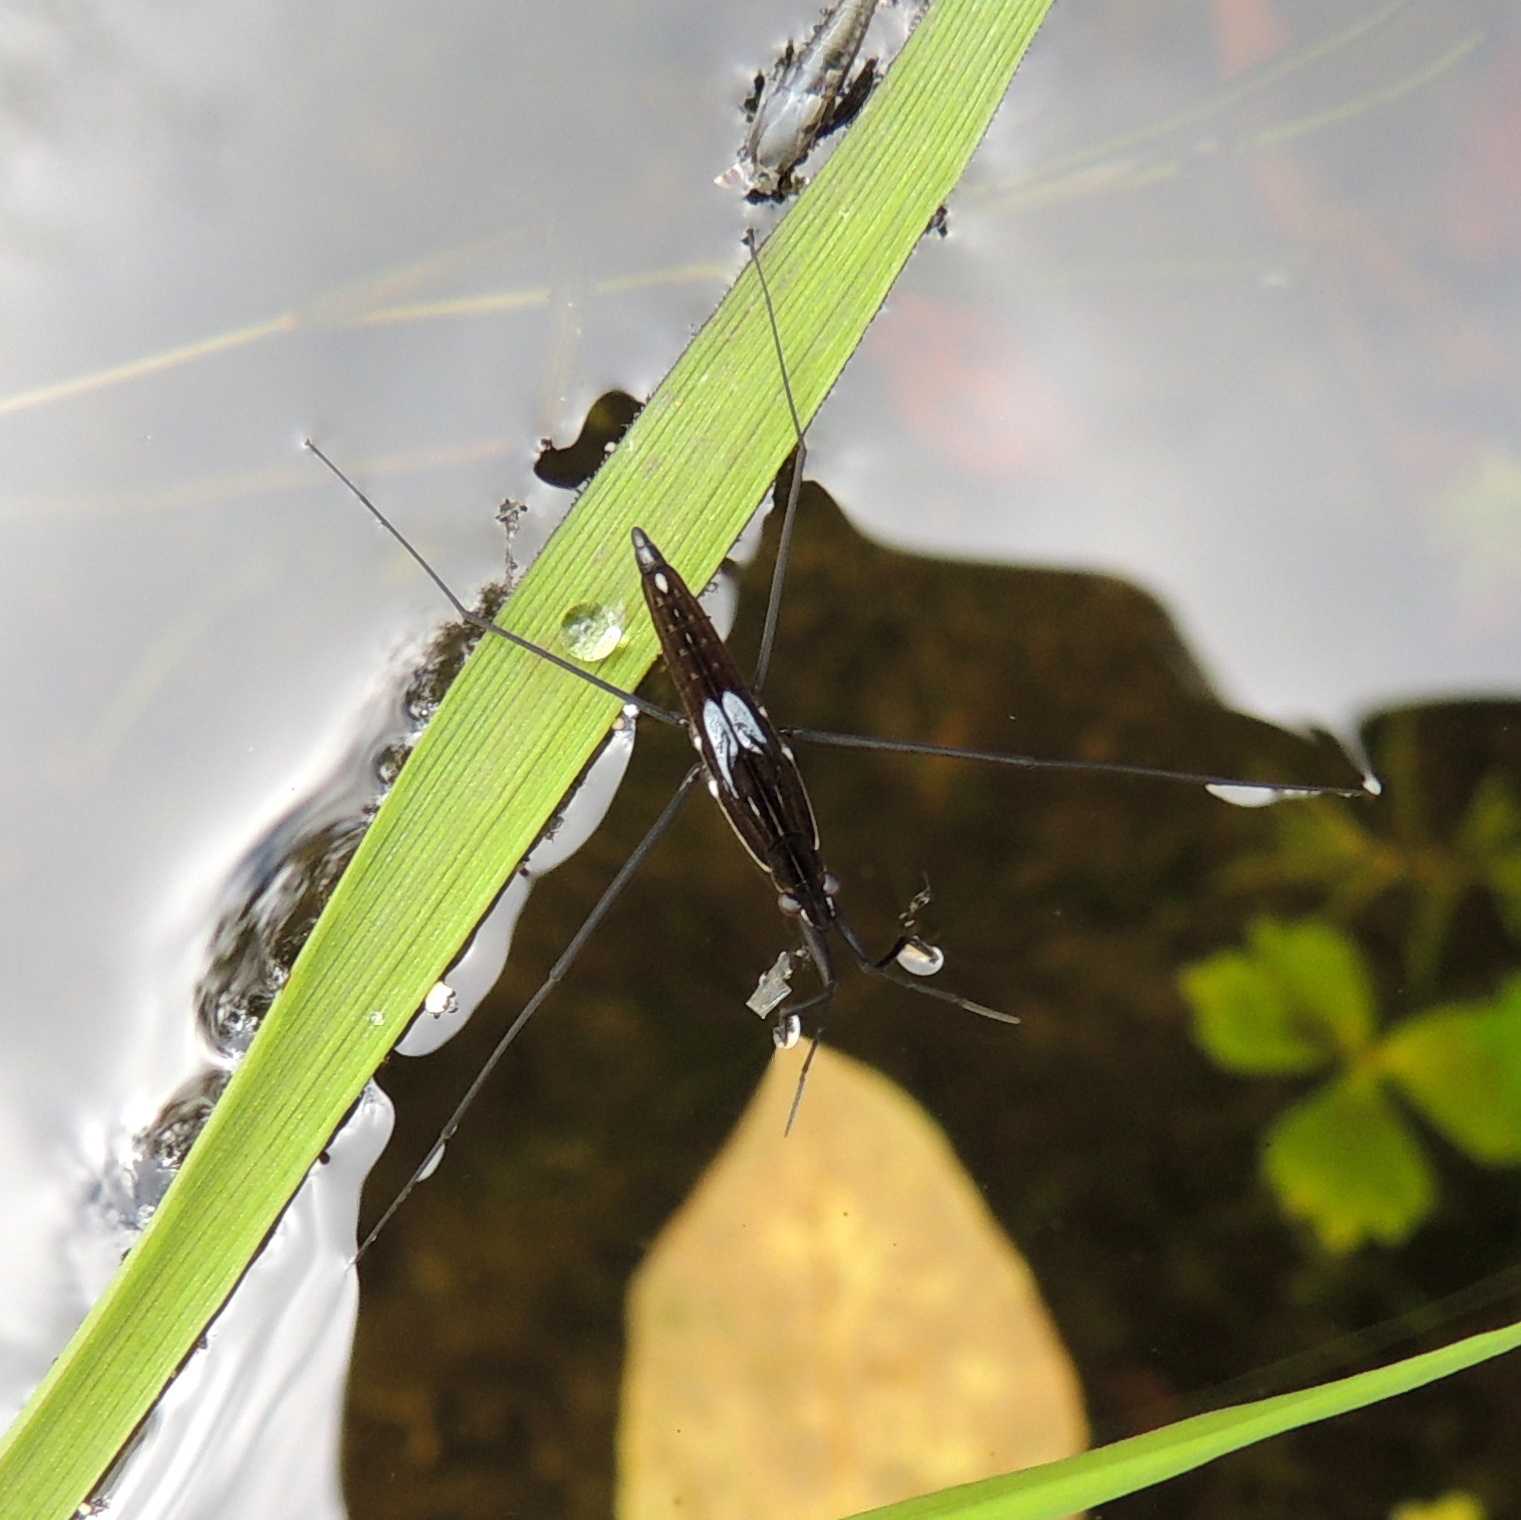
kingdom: Animalia
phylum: Arthropoda
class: Insecta
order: Hemiptera
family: Gerridae
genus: Limnoporus
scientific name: Limnoporus rufoscutellatus
